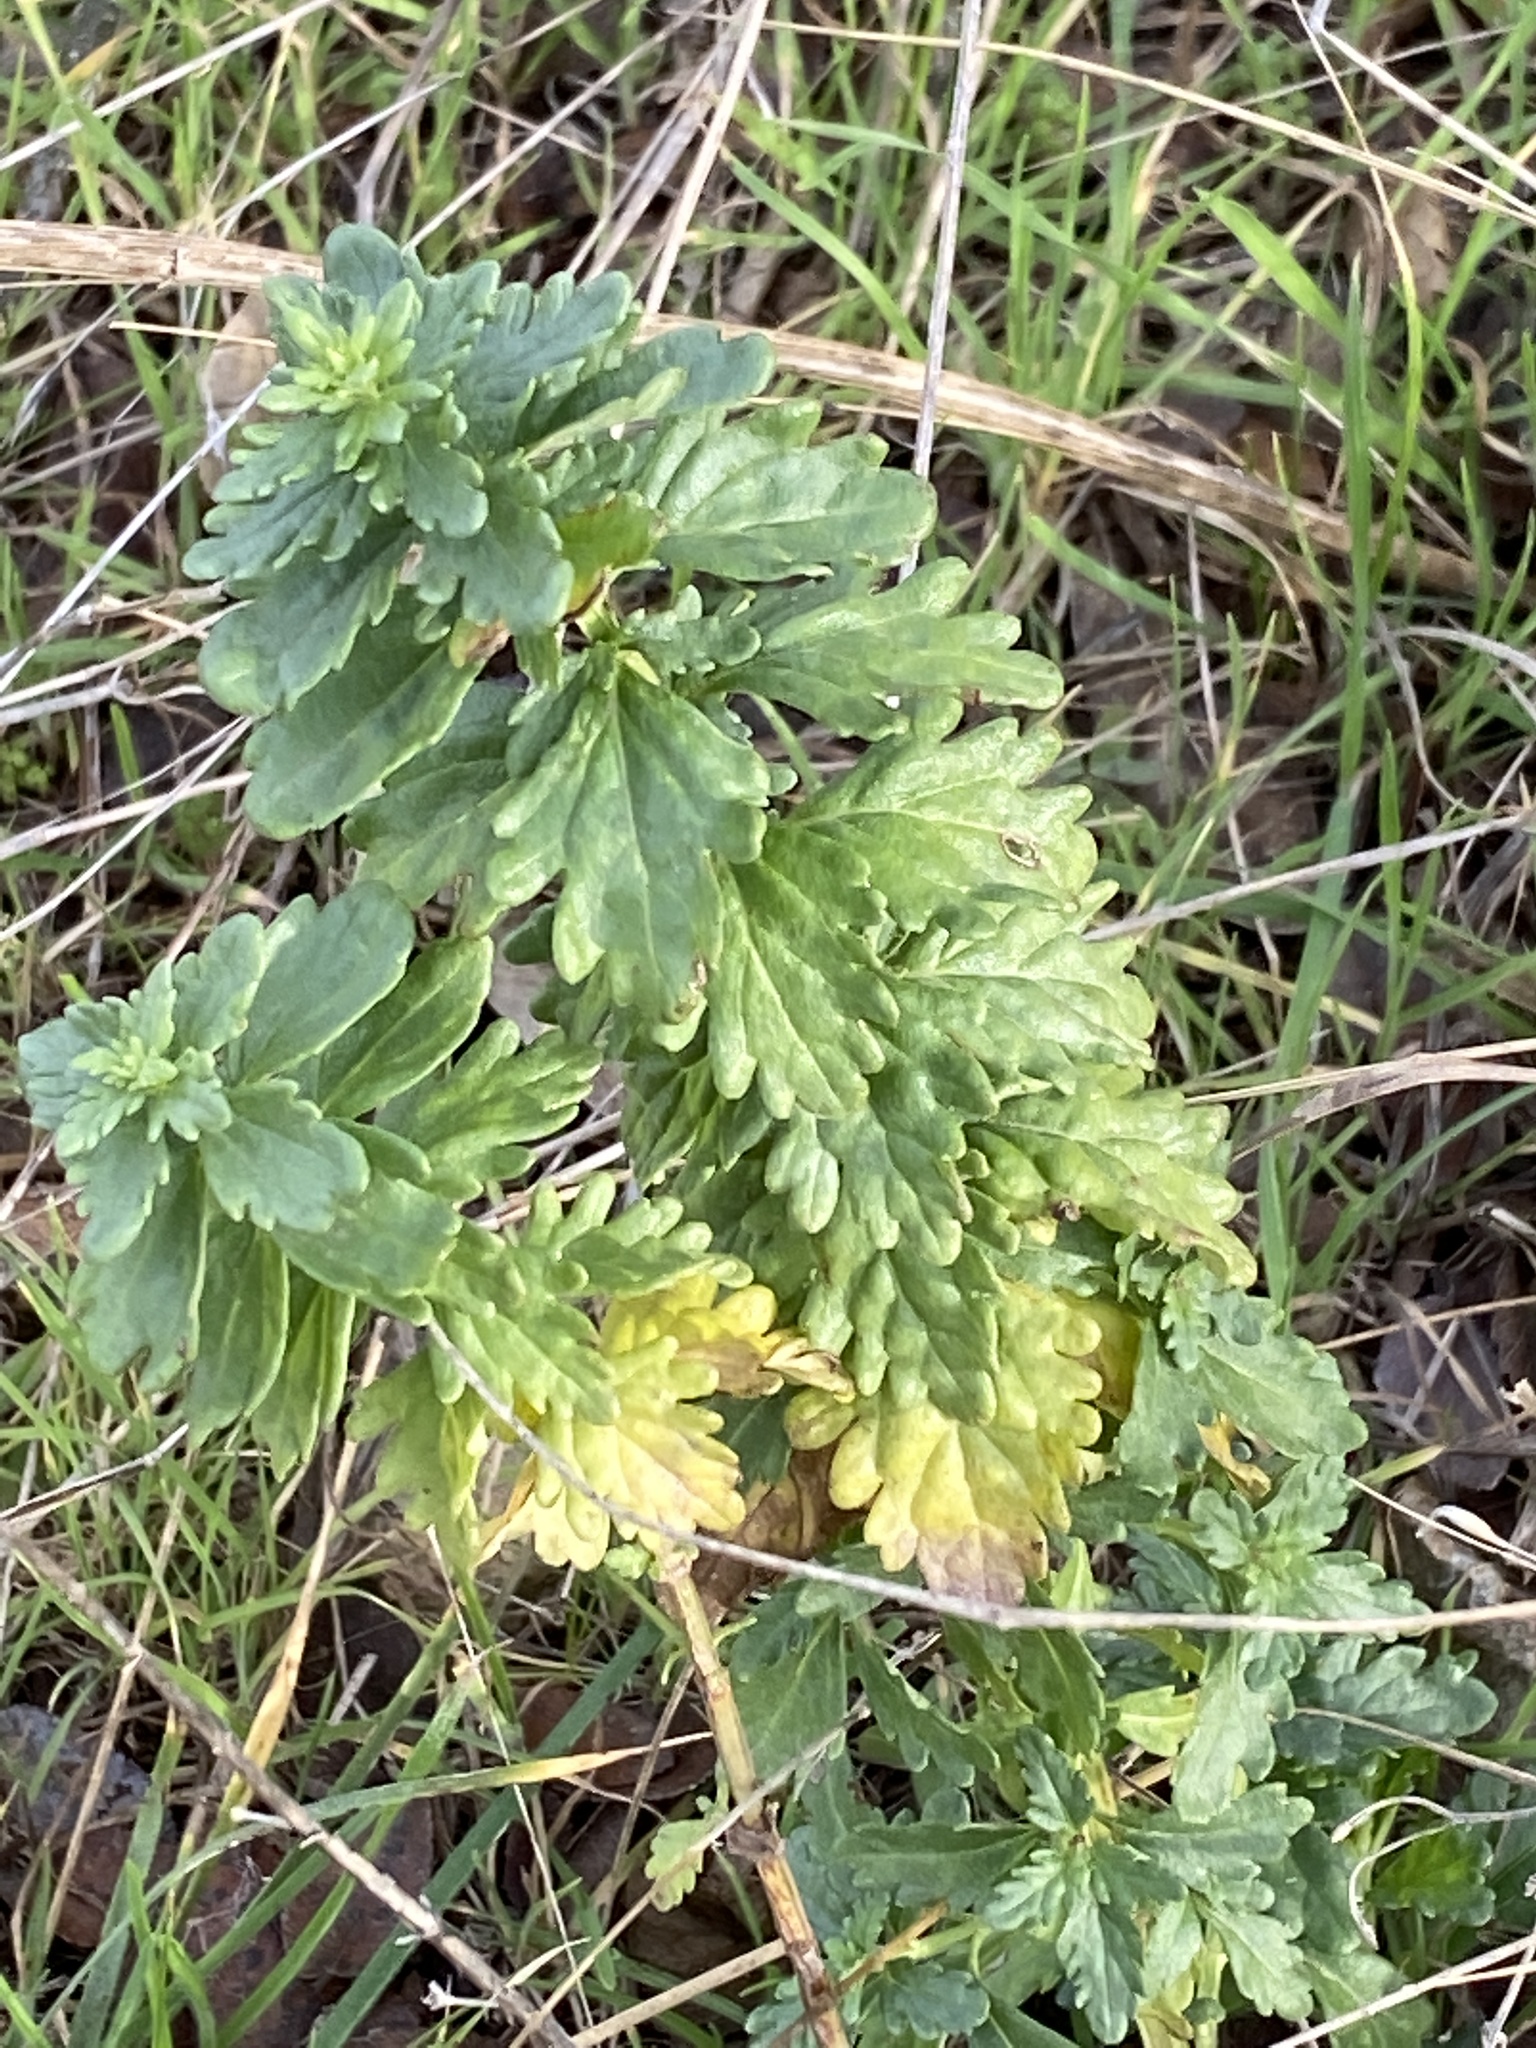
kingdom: Plantae
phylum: Tracheophyta
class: Magnoliopsida
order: Lamiales
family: Lamiaceae
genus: Teucrium
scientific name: Teucrium cubense
